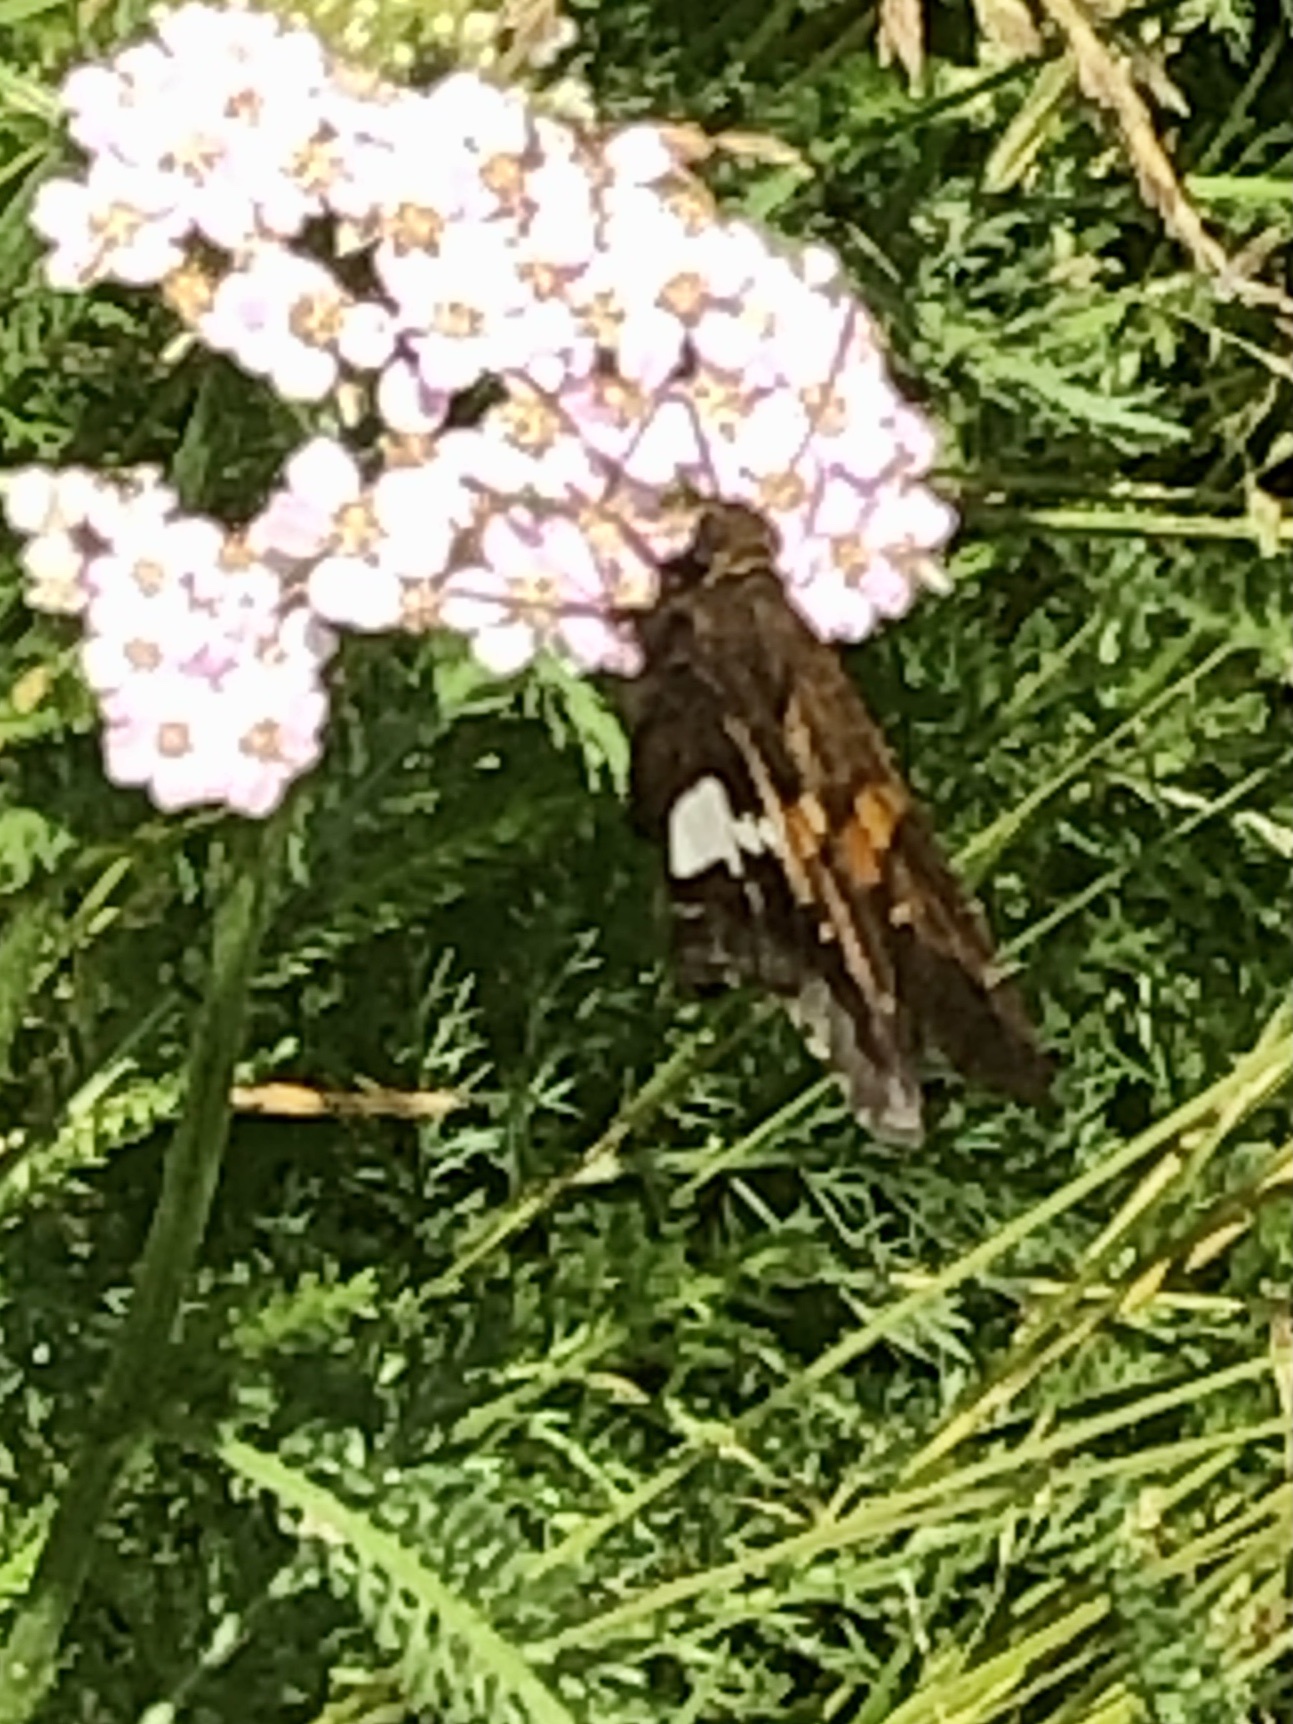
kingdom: Animalia
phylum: Arthropoda
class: Insecta
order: Lepidoptera
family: Hesperiidae
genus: Epargyreus
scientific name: Epargyreus clarus
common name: Silver-spotted skipper
